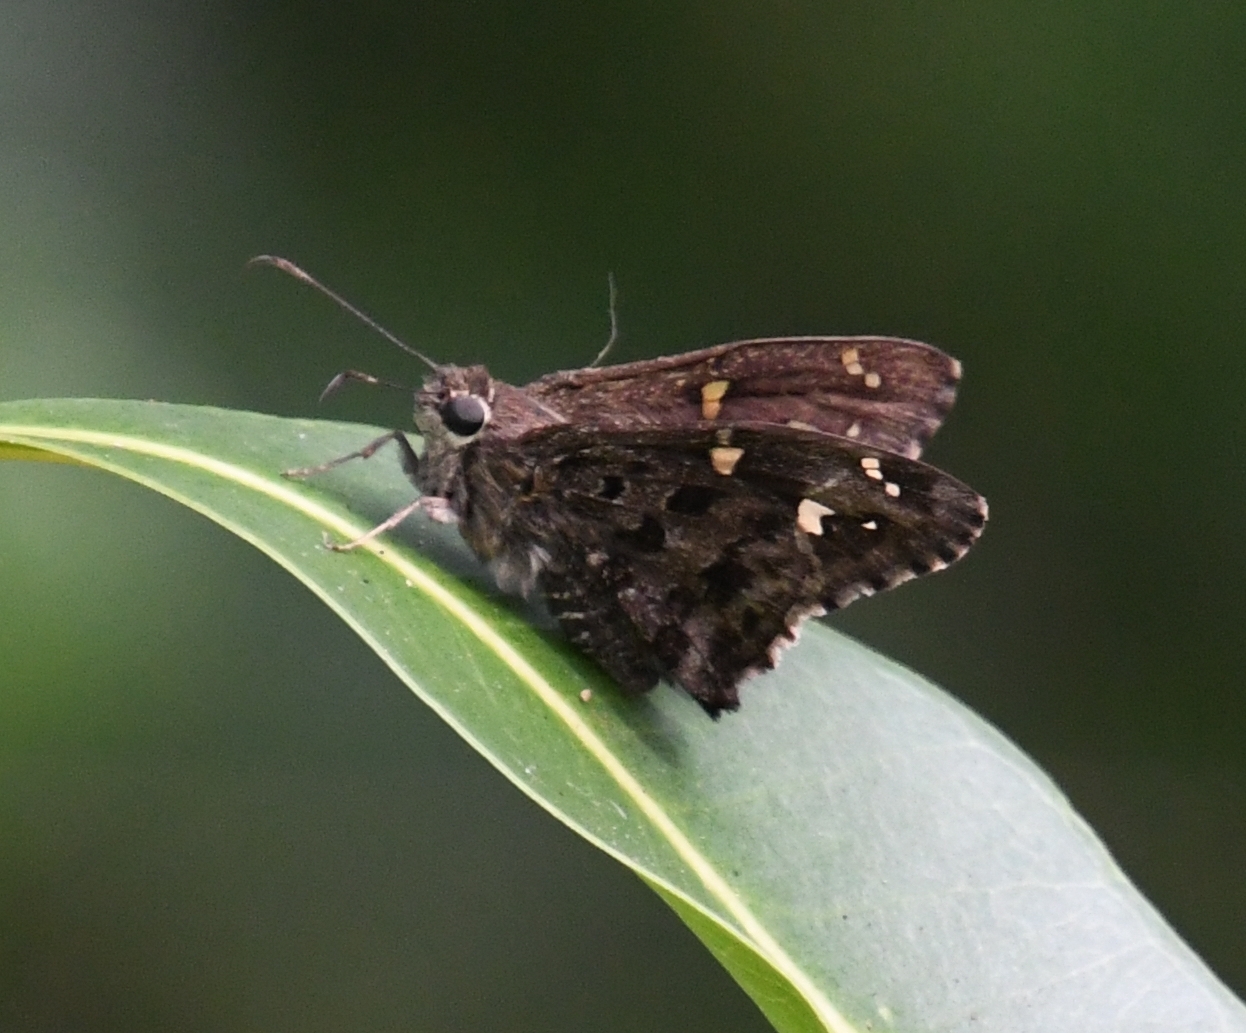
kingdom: Animalia
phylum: Arthropoda
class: Insecta
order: Lepidoptera
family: Hesperiidae
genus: Thorybes
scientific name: Thorybes
